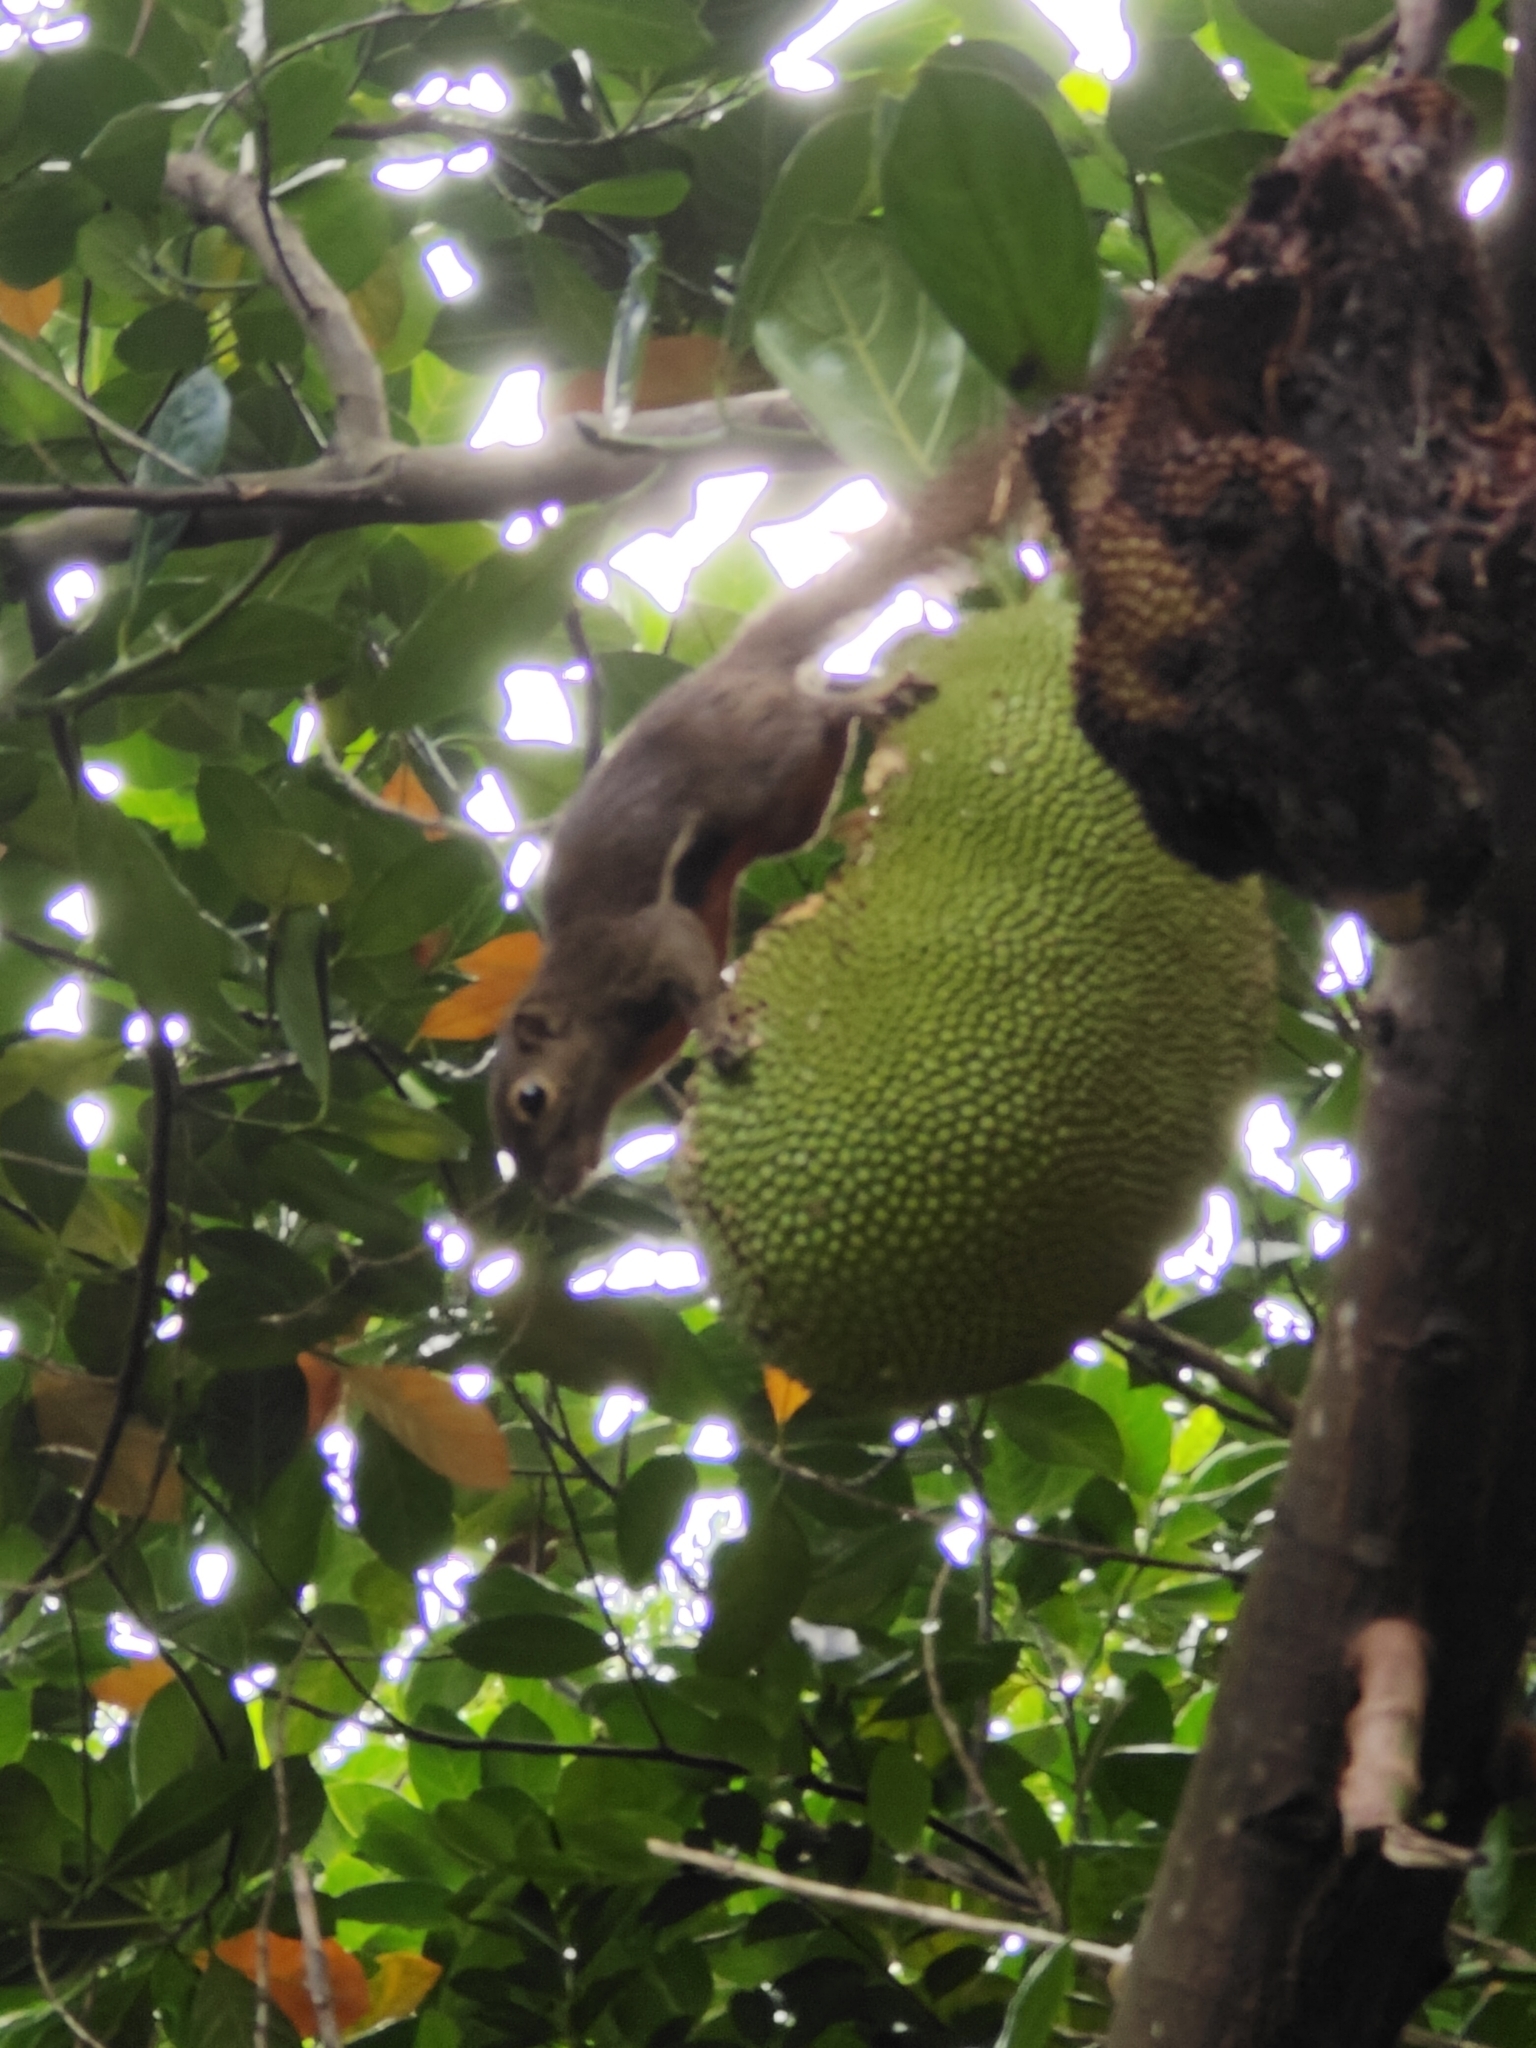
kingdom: Animalia
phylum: Chordata
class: Mammalia
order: Rodentia
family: Sciuridae
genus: Callosciurus
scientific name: Callosciurus notatus
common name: Plantain squirrel
